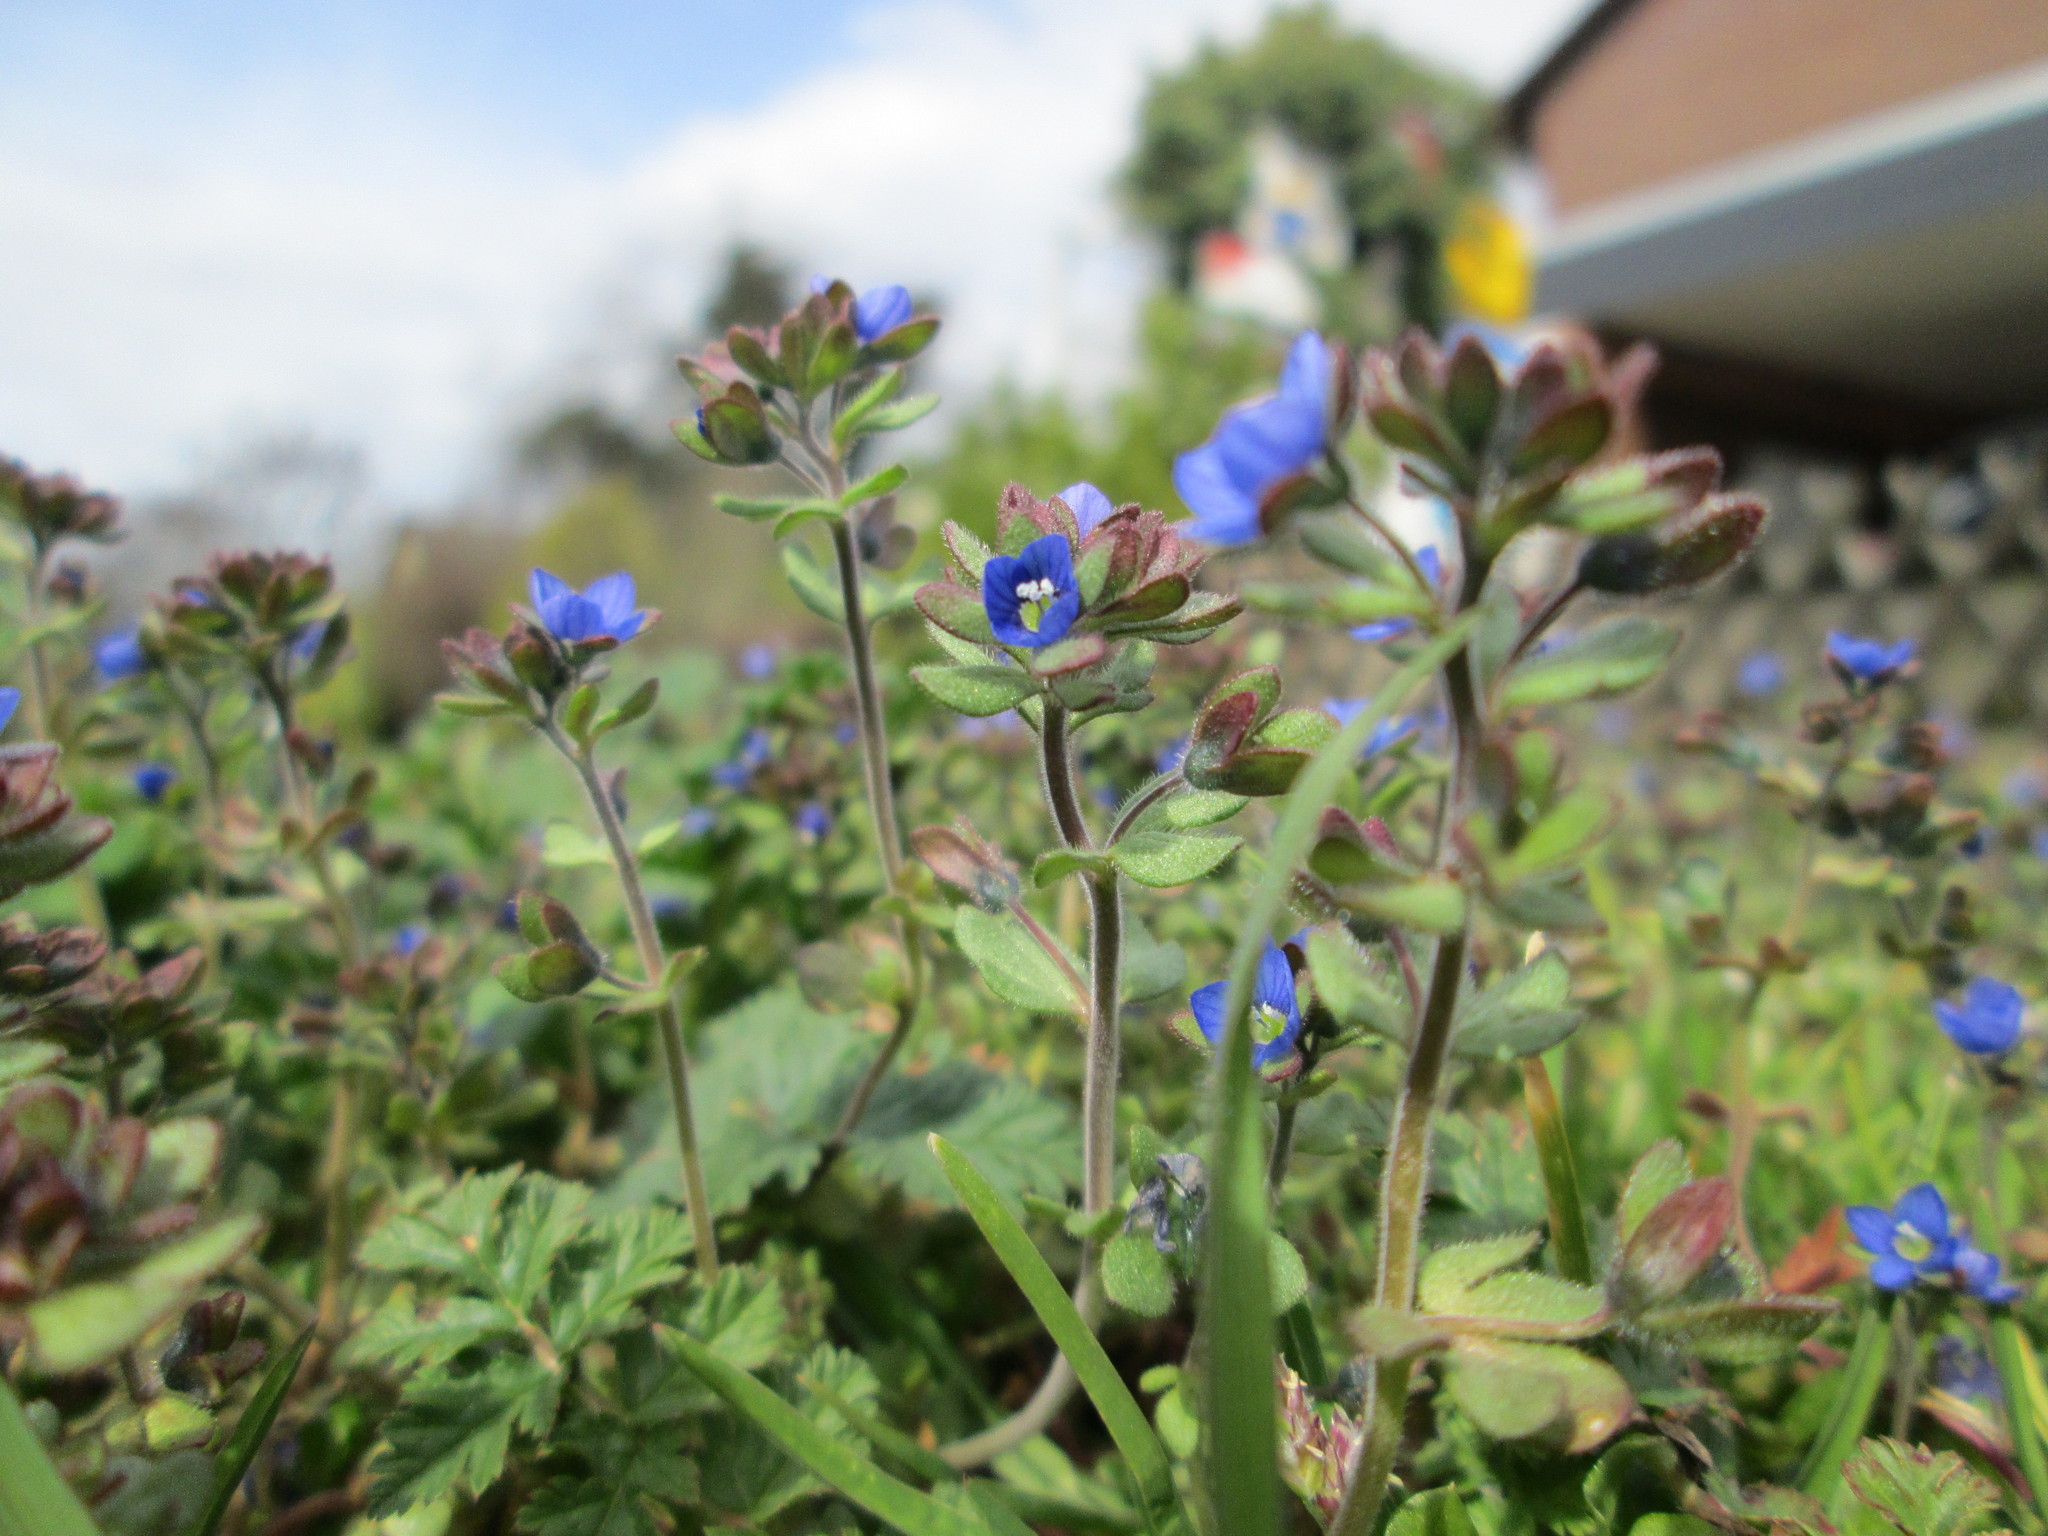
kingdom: Plantae
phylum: Tracheophyta
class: Magnoliopsida
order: Lamiales
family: Plantaginaceae
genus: Veronica
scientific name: Veronica triphyllos
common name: Fingered speedwell
